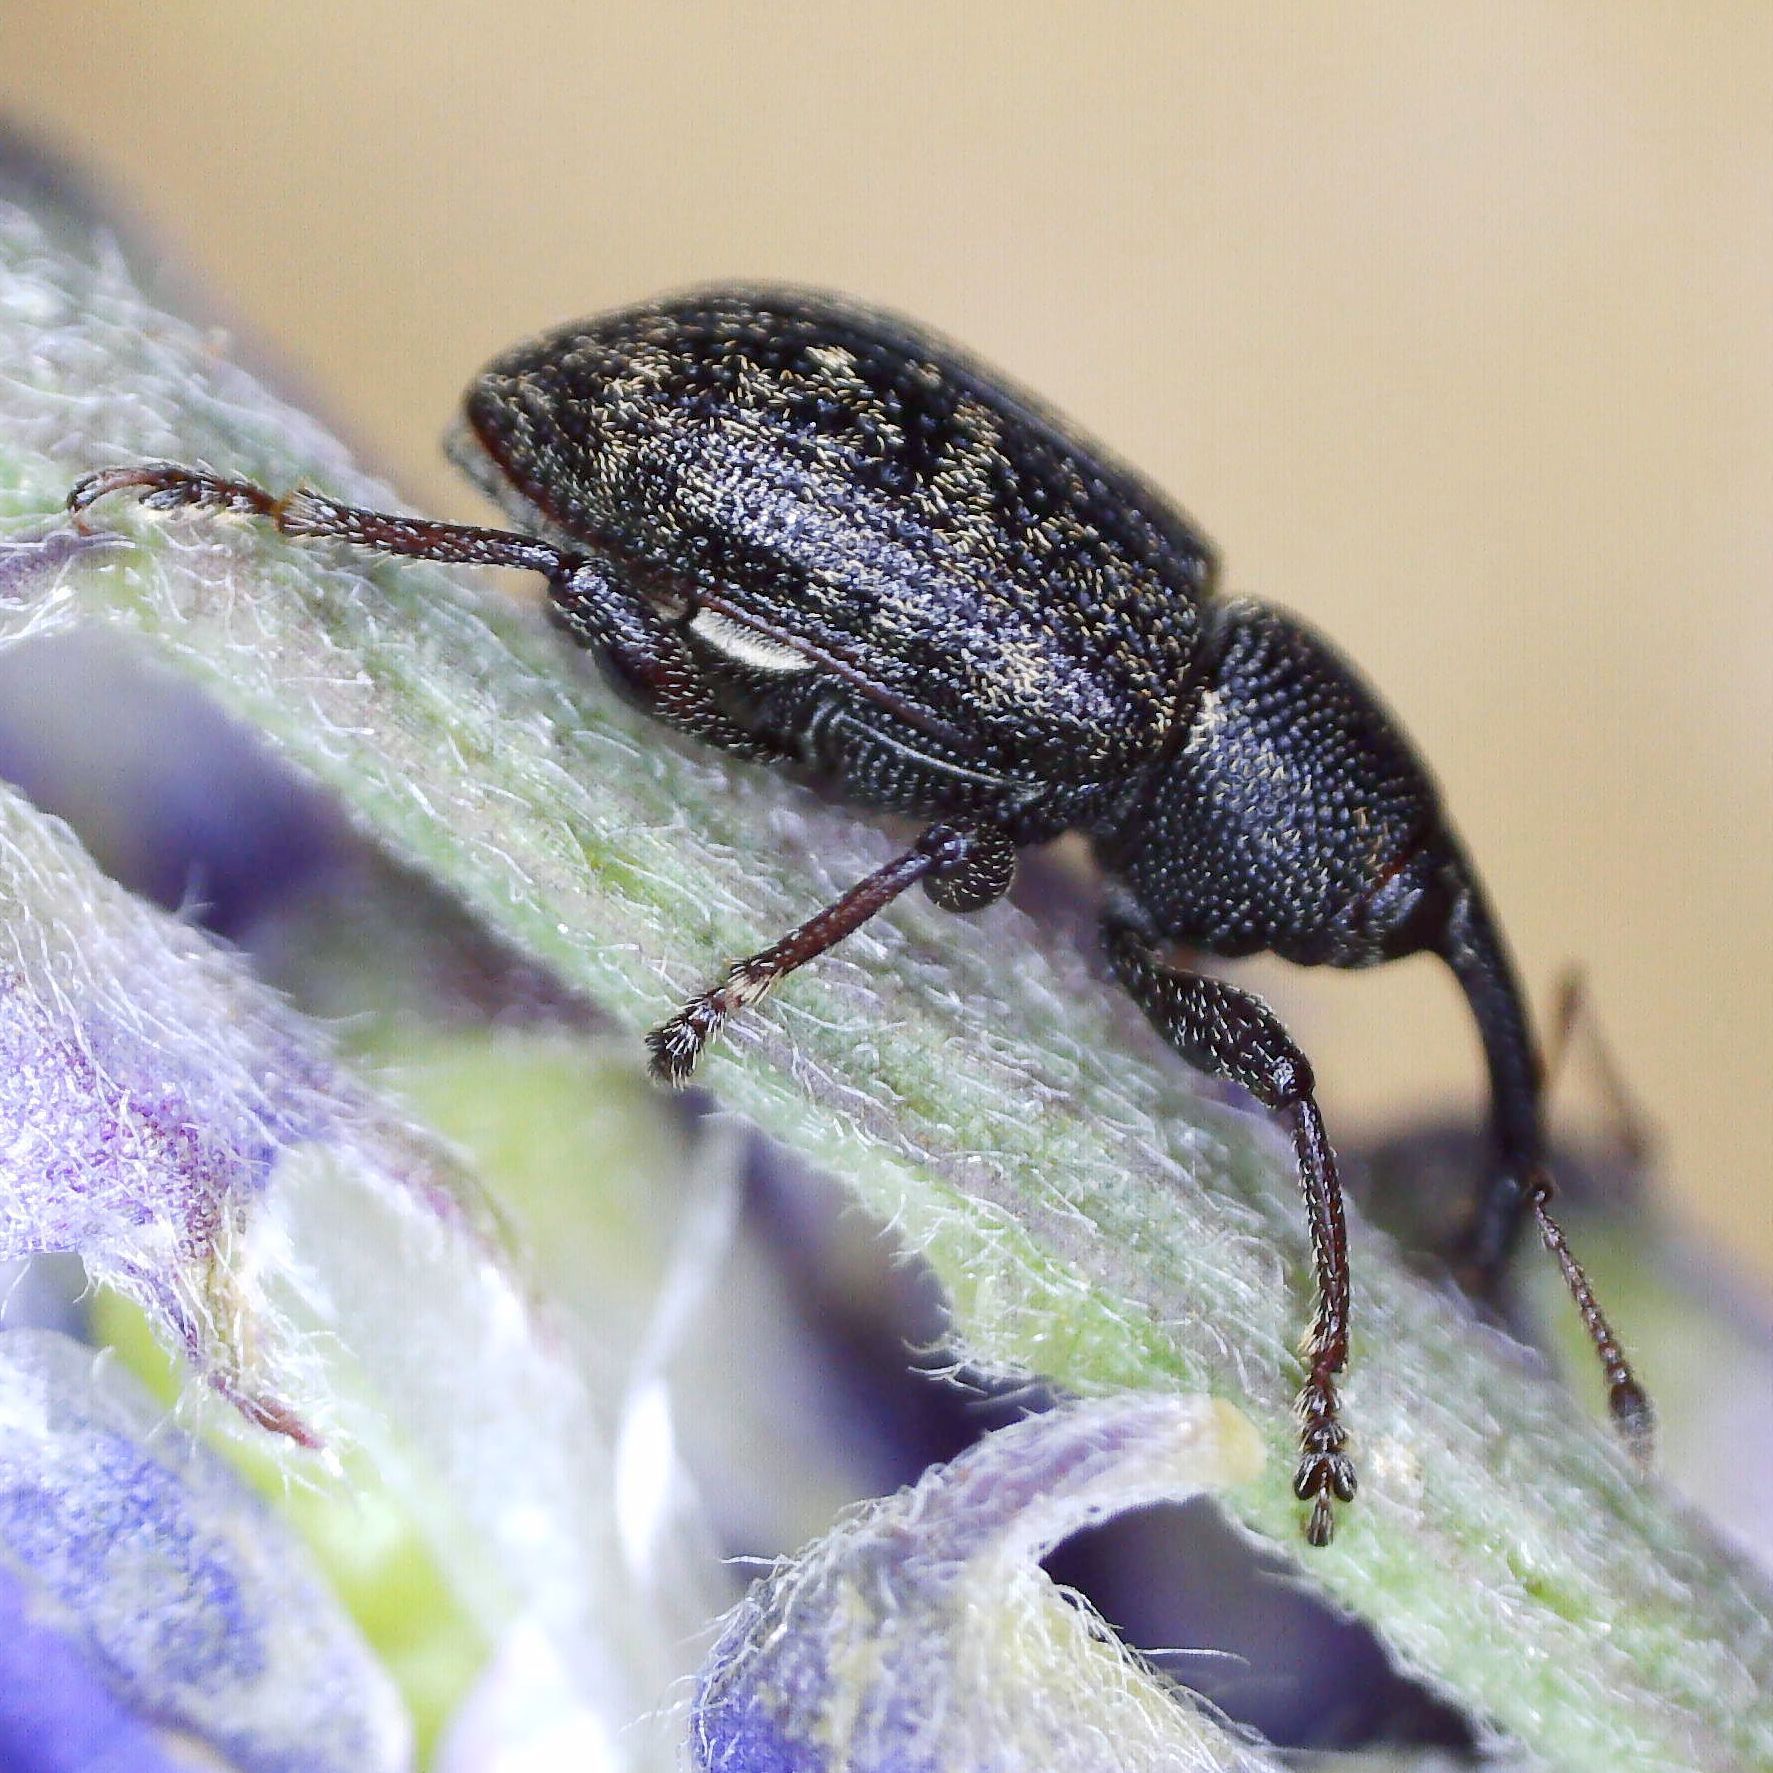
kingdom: Animalia
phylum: Arthropoda
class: Insecta
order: Coleoptera
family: Brachyceridae
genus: Notaris
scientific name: Notaris acridulus
